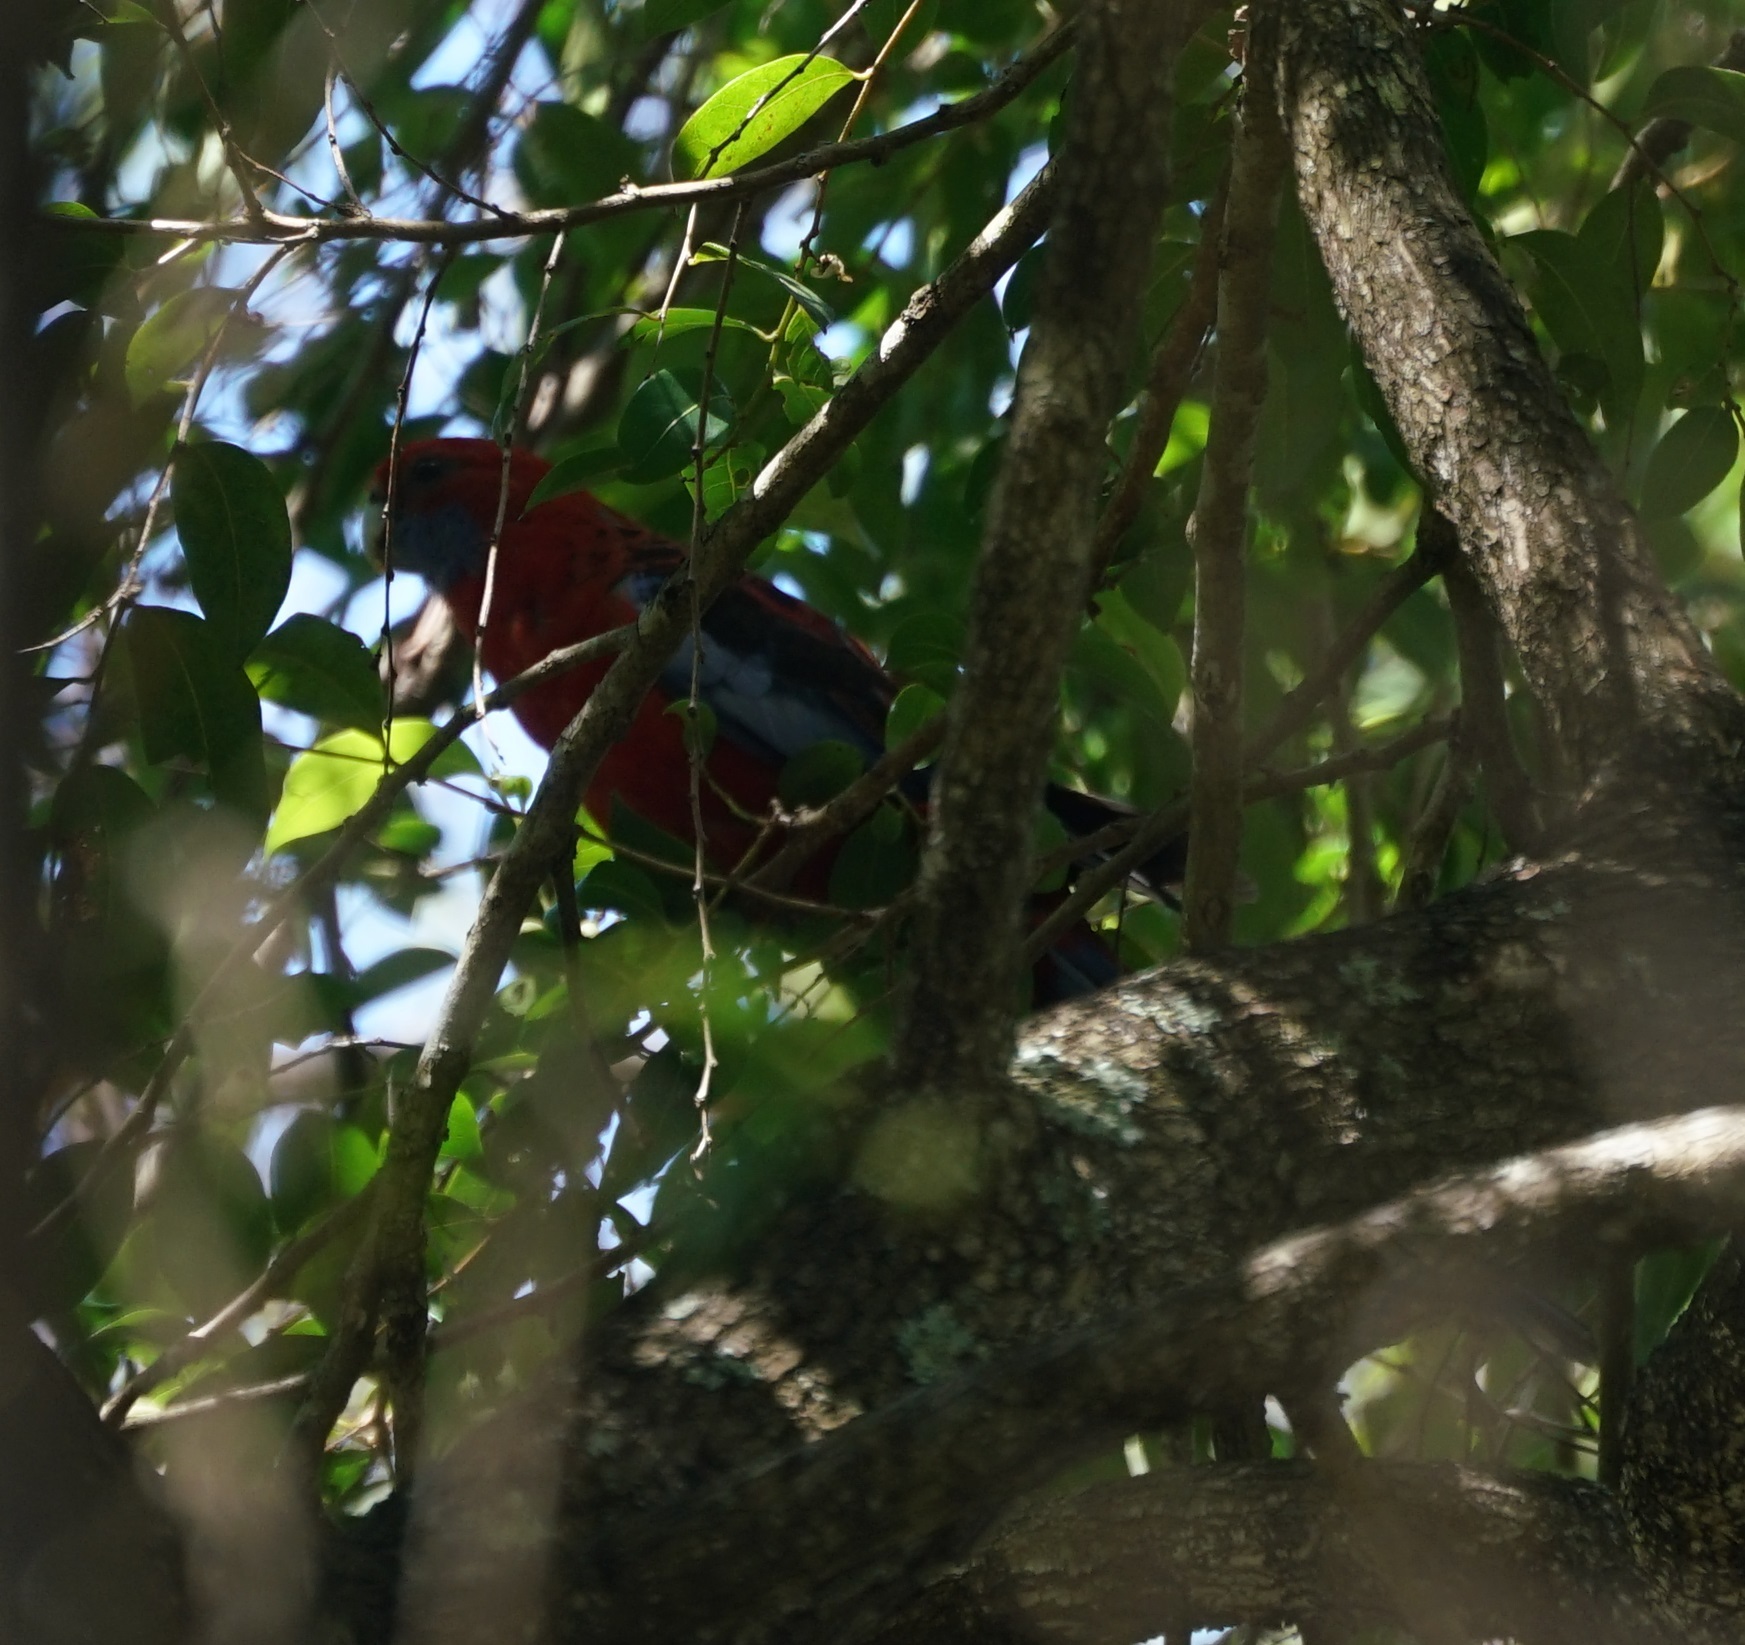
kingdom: Animalia
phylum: Chordata
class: Aves
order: Psittaciformes
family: Psittacidae
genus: Platycercus
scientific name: Platycercus elegans
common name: Crimson rosella
